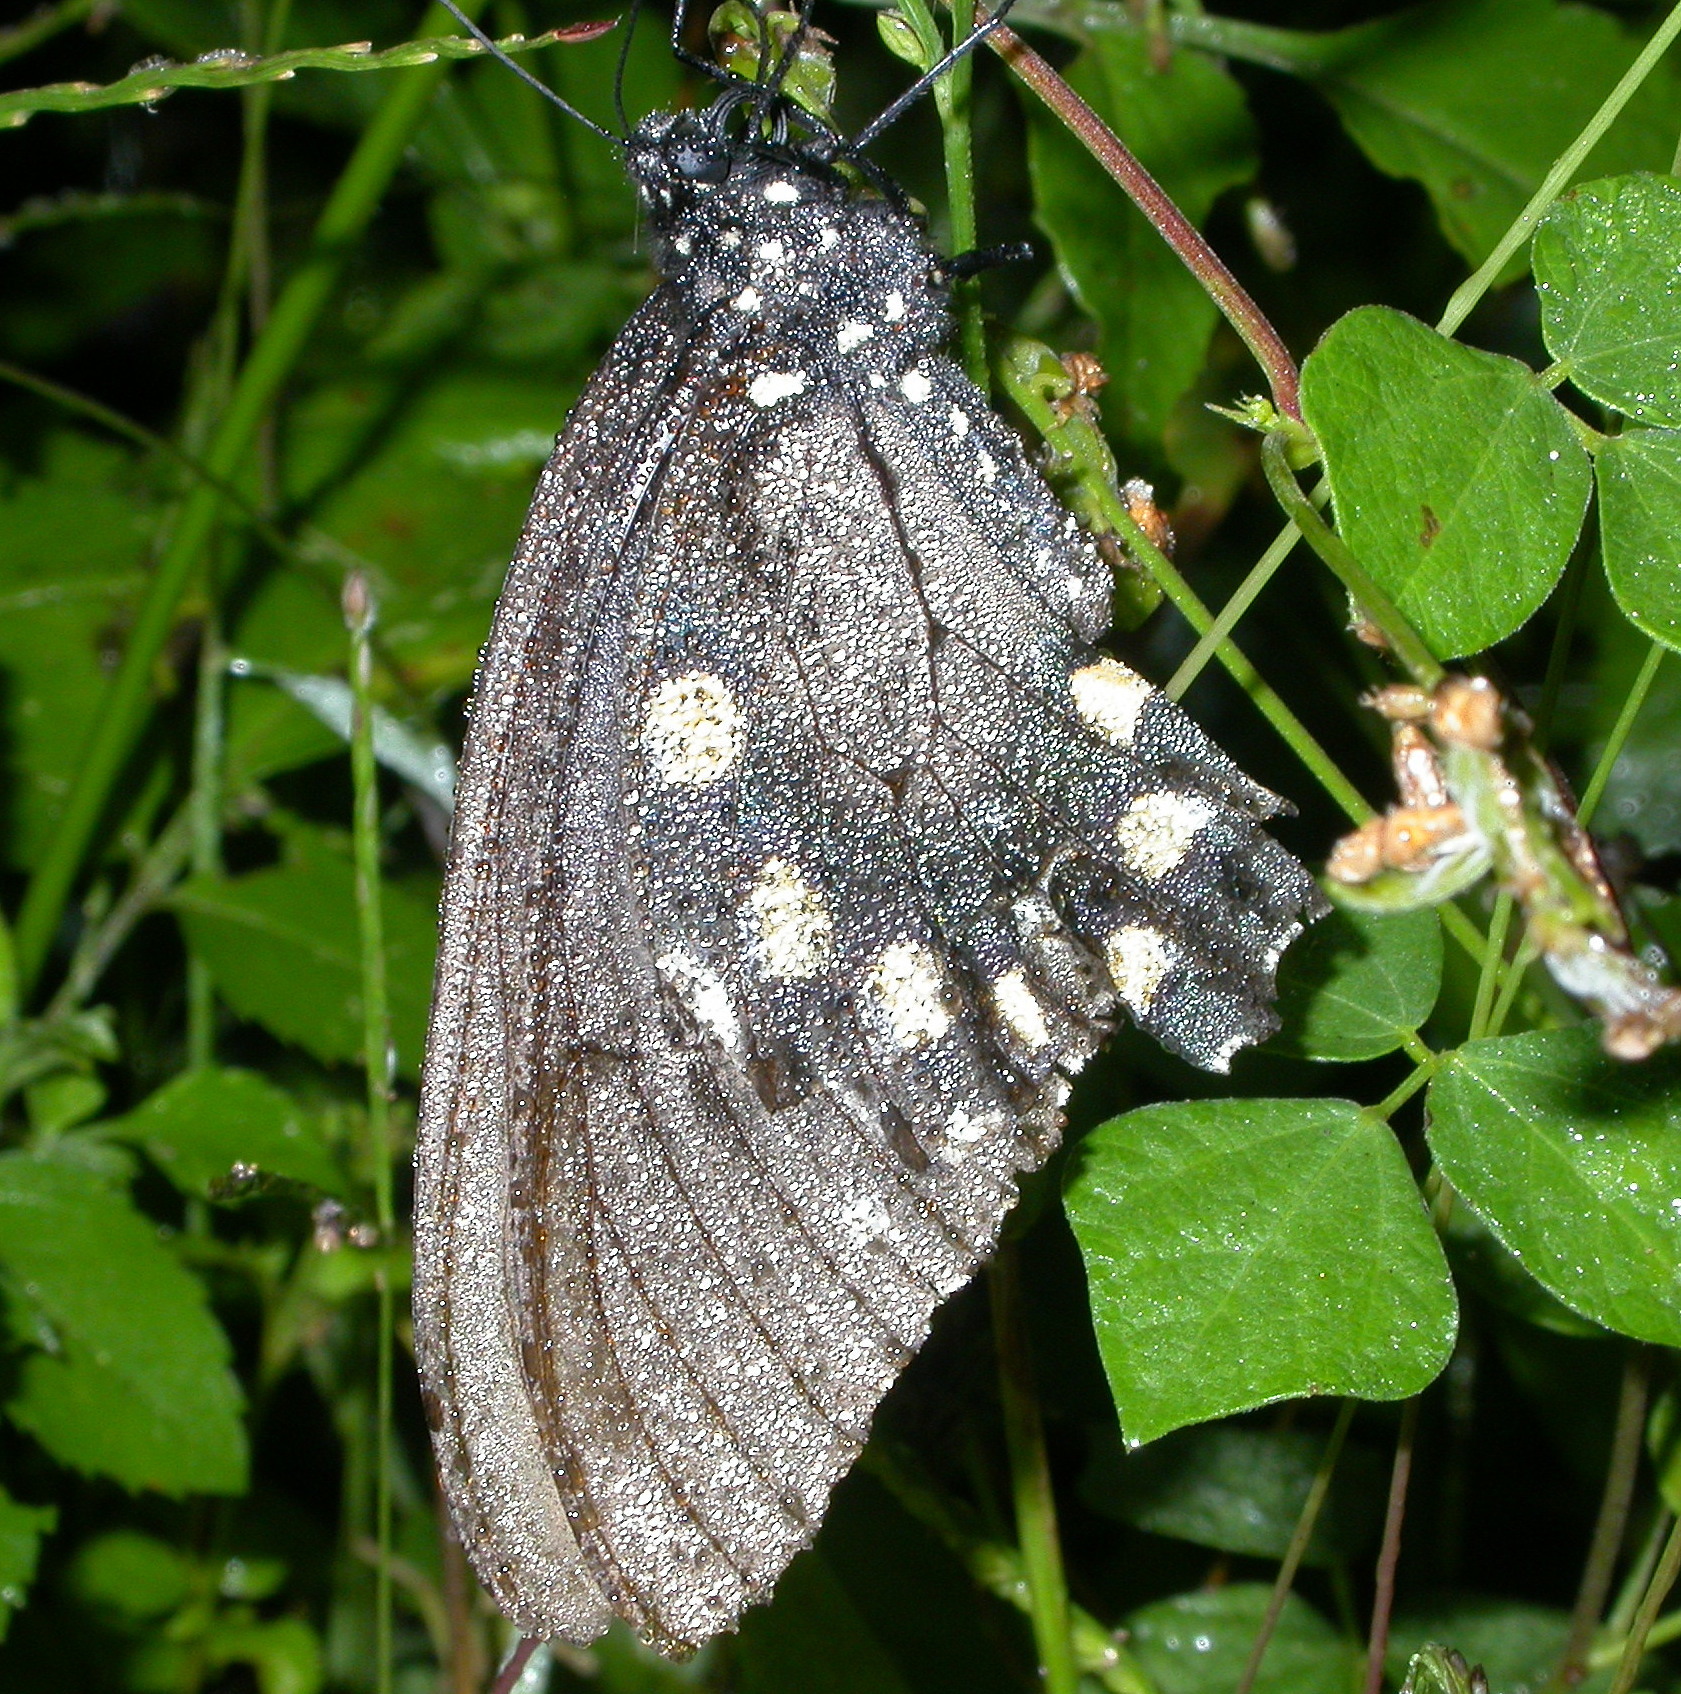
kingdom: Animalia
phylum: Arthropoda
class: Insecta
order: Lepidoptera
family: Papilionidae
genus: Battus
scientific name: Battus philenor
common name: Pipevine swallowtail
